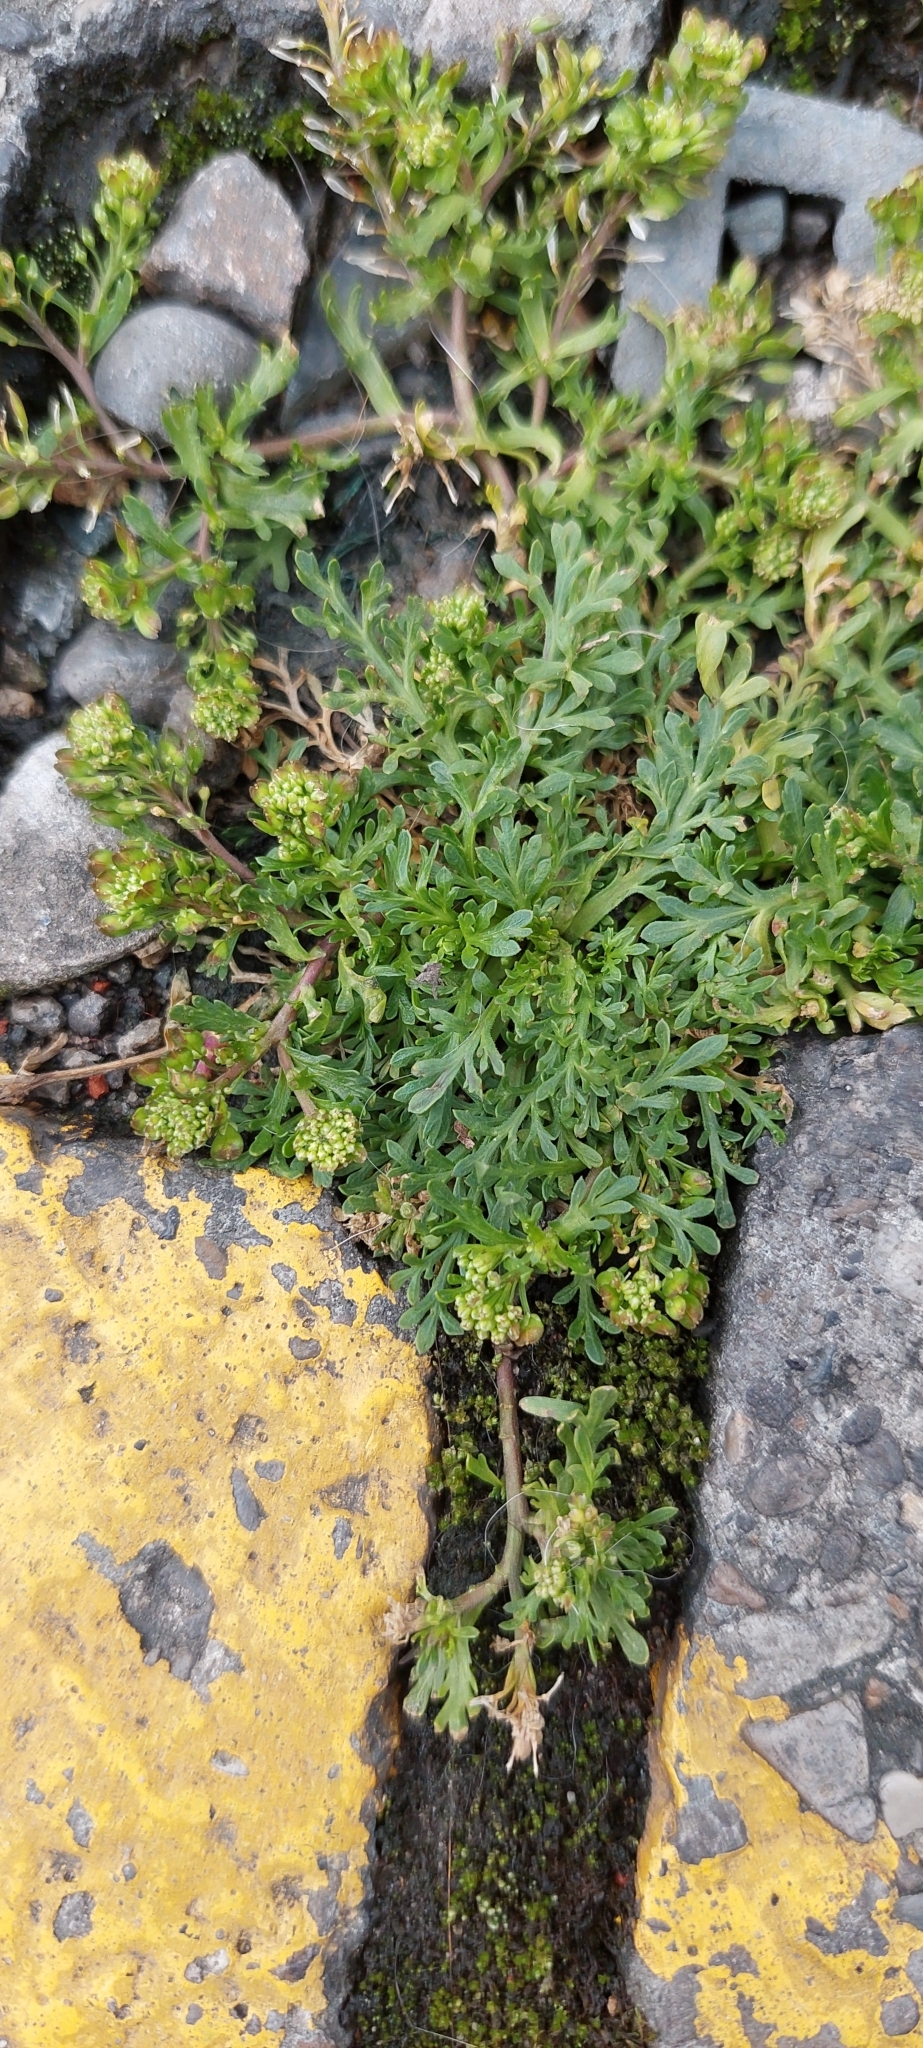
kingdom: Plantae
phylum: Tracheophyta
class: Magnoliopsida
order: Brassicales
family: Brassicaceae
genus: Lepidium
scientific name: Lepidium bipinnatifidum
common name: Wayside pepperwort
